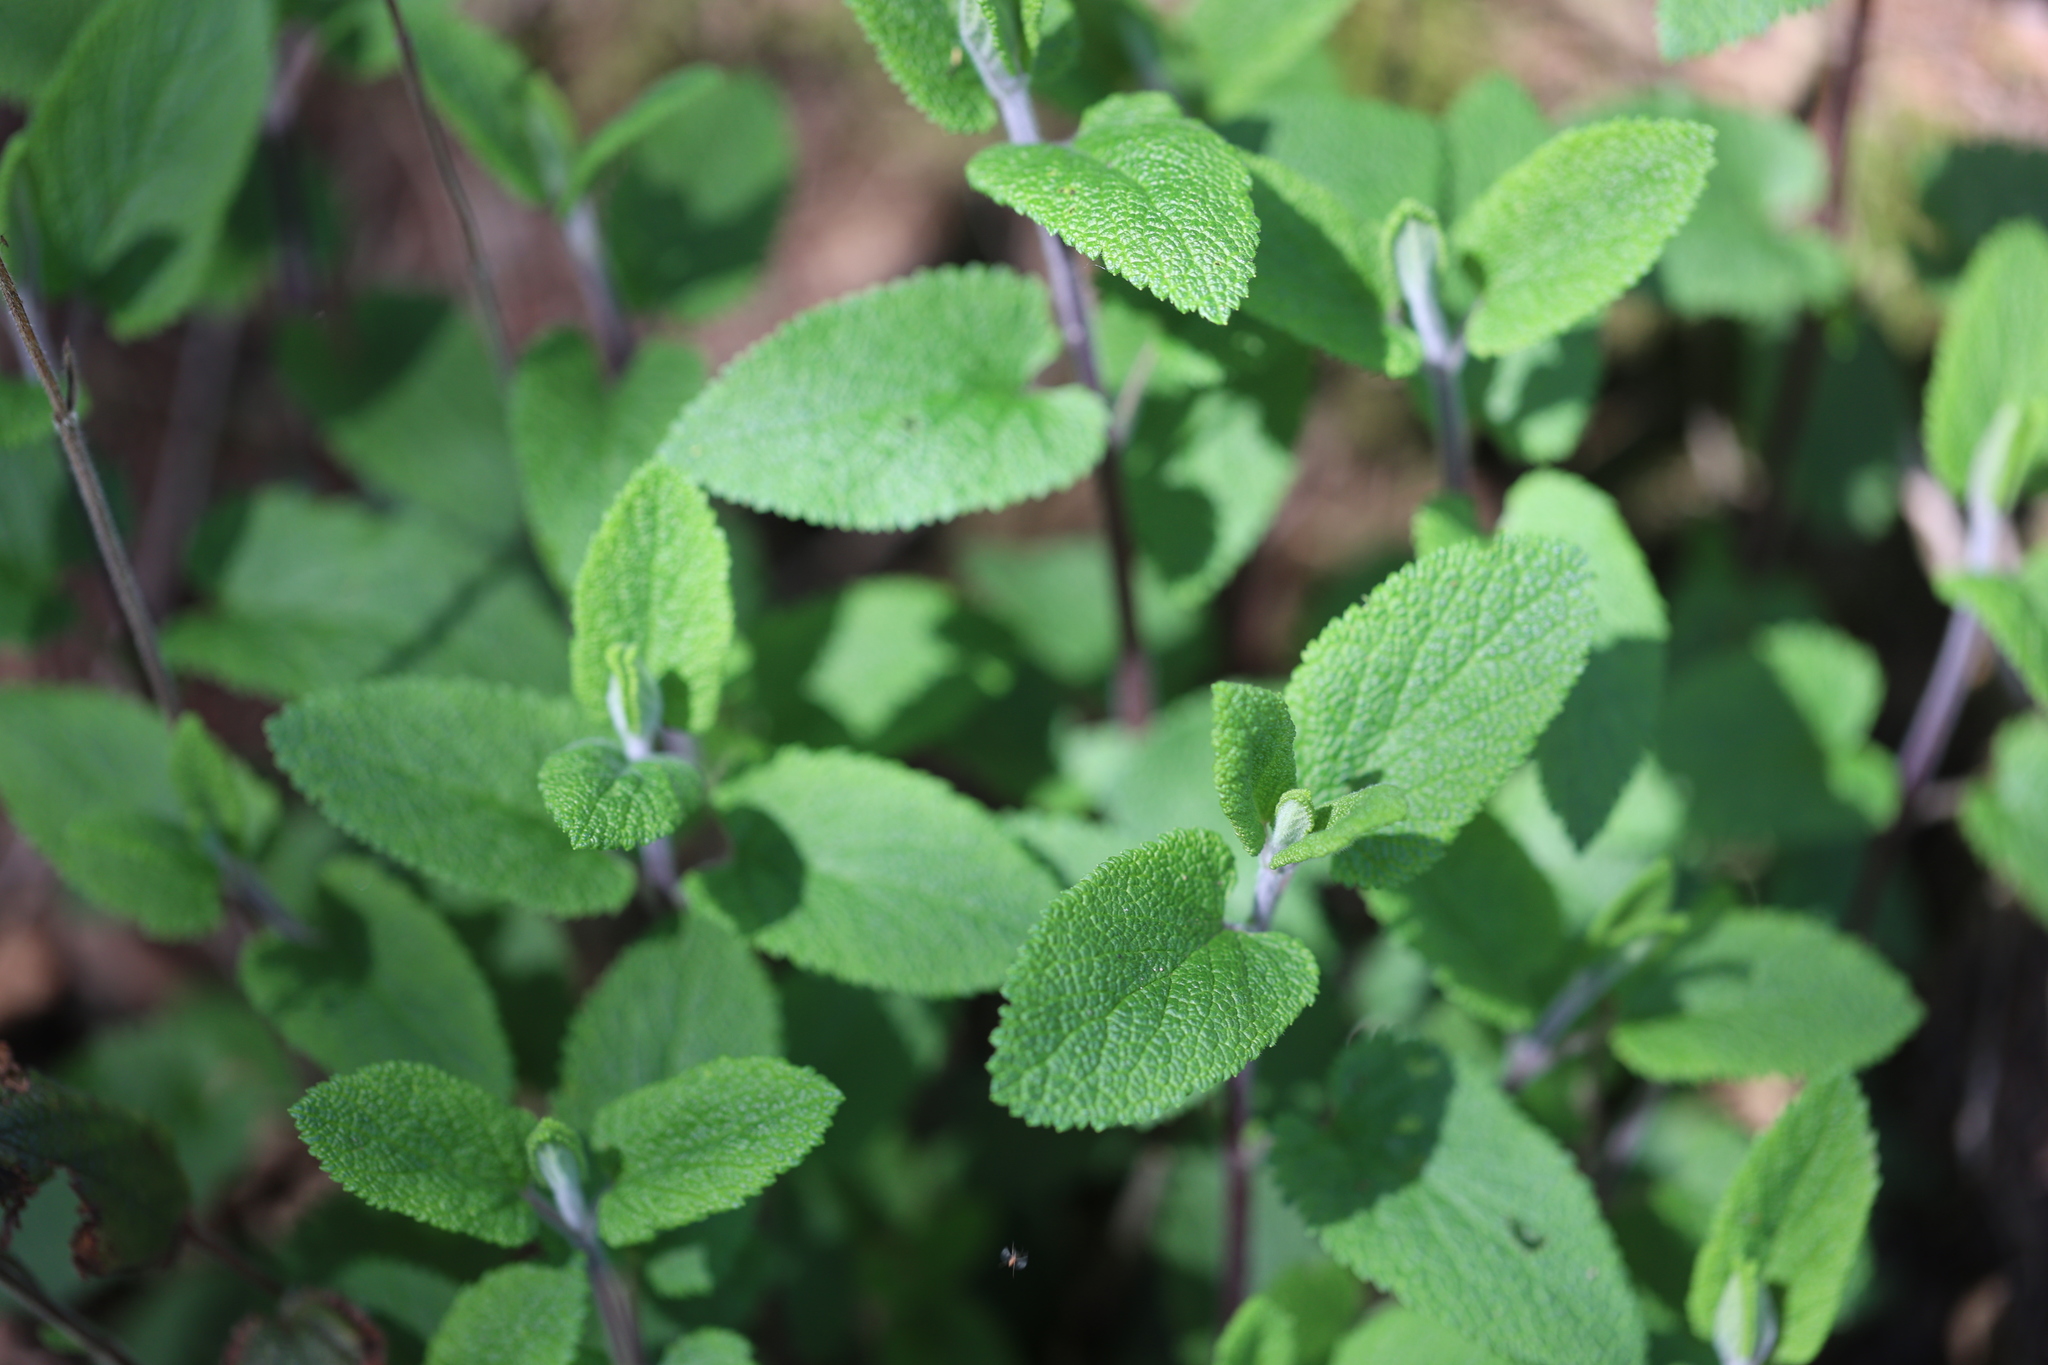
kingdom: Plantae
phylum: Tracheophyta
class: Magnoliopsida
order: Lamiales
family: Lamiaceae
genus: Teucrium
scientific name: Teucrium scorodonia
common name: Woodland germander
